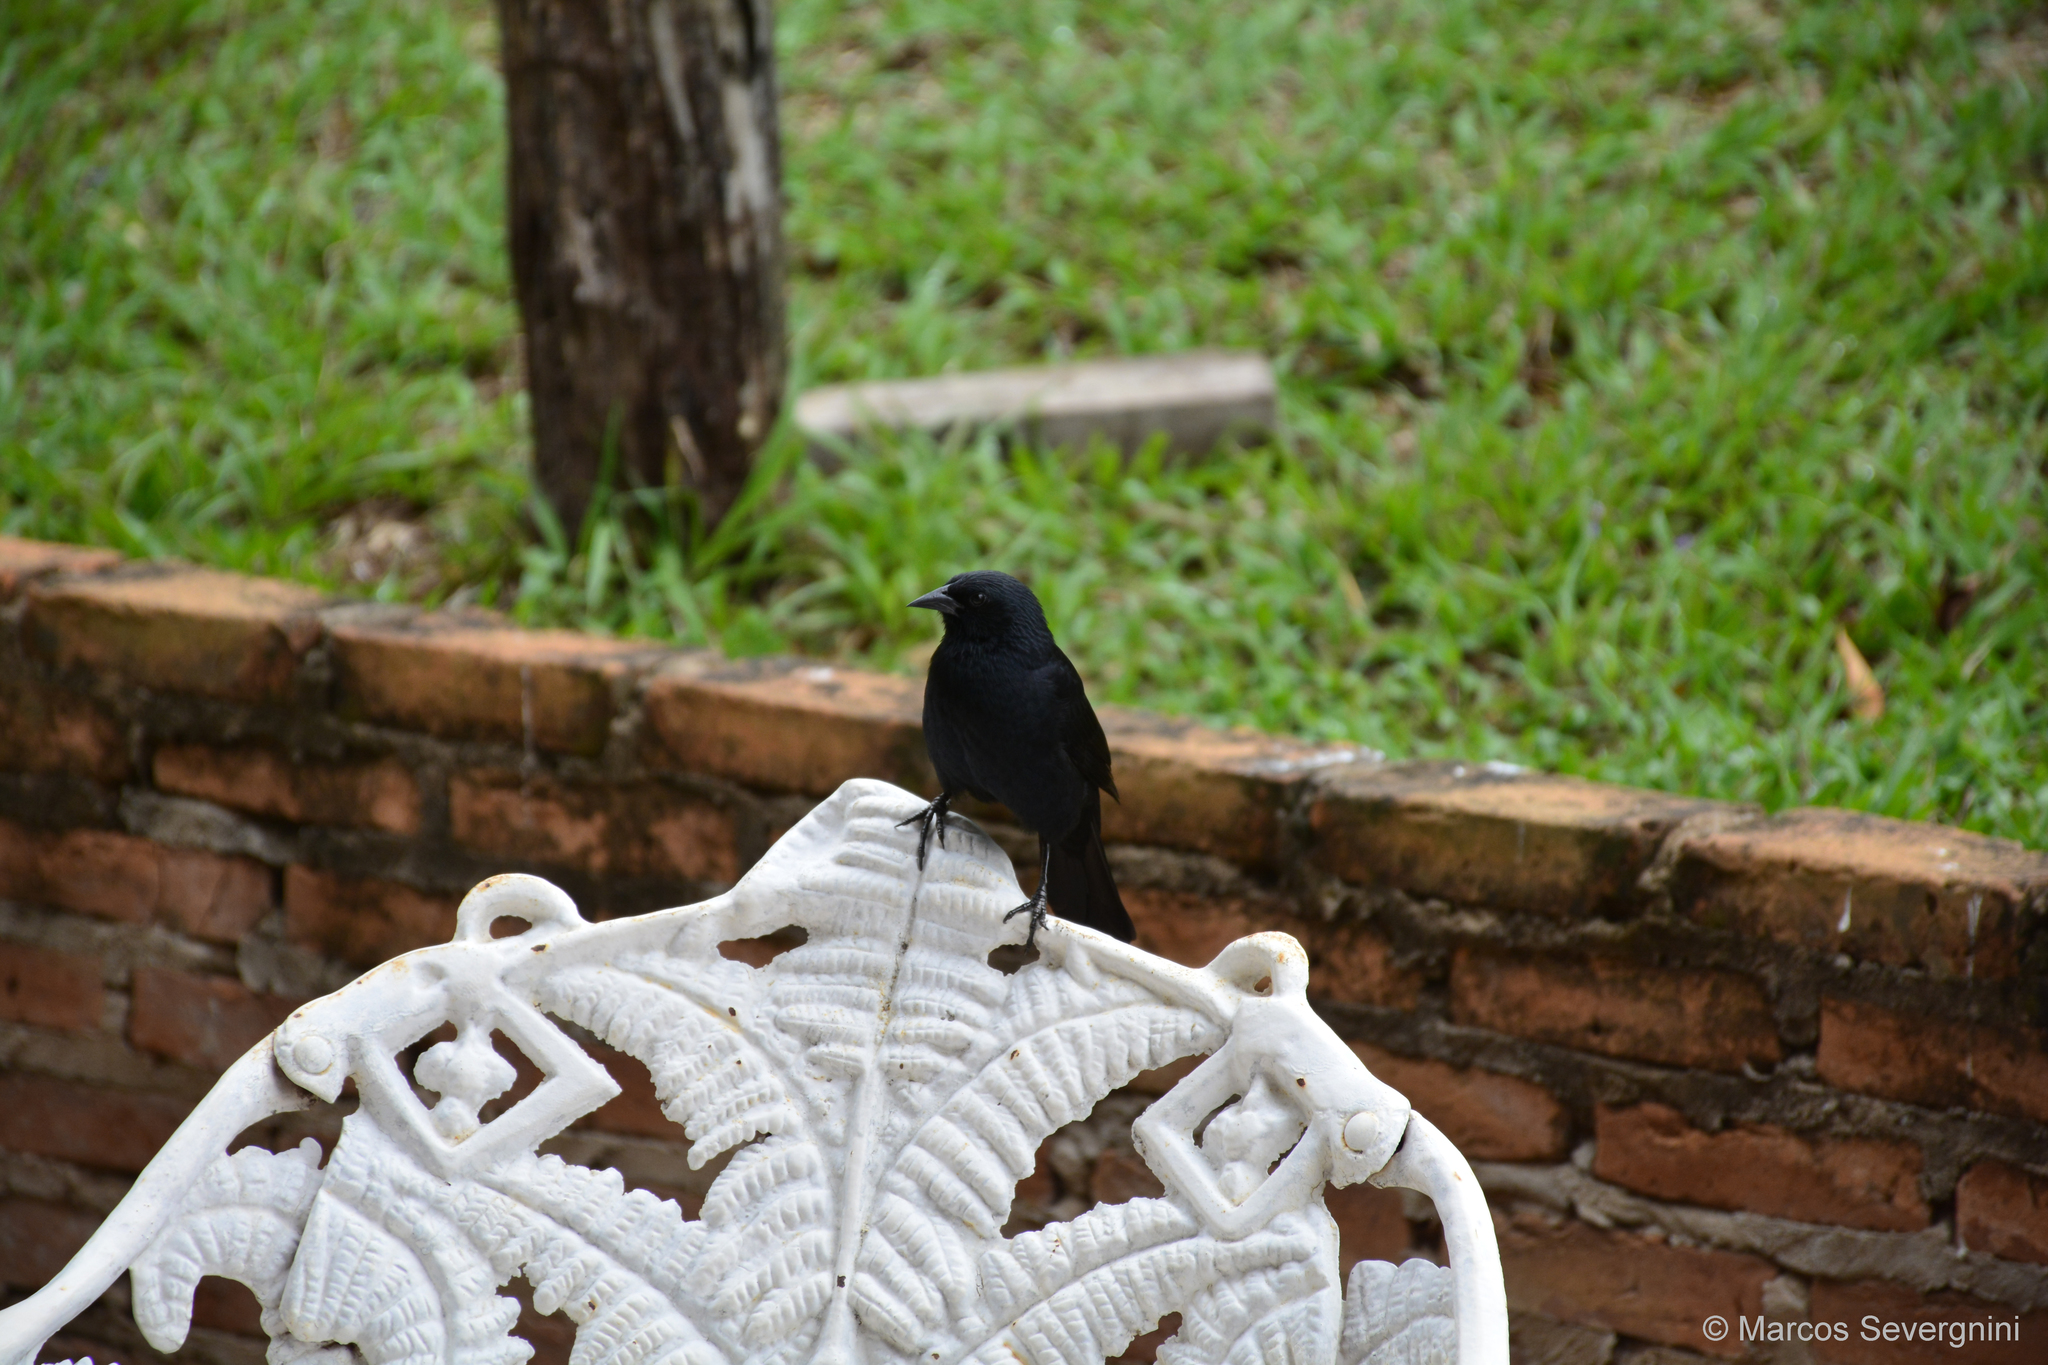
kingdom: Animalia
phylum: Chordata
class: Aves
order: Passeriformes
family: Icteridae
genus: Gnorimopsar
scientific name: Gnorimopsar chopi
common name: Chopi blackbird
